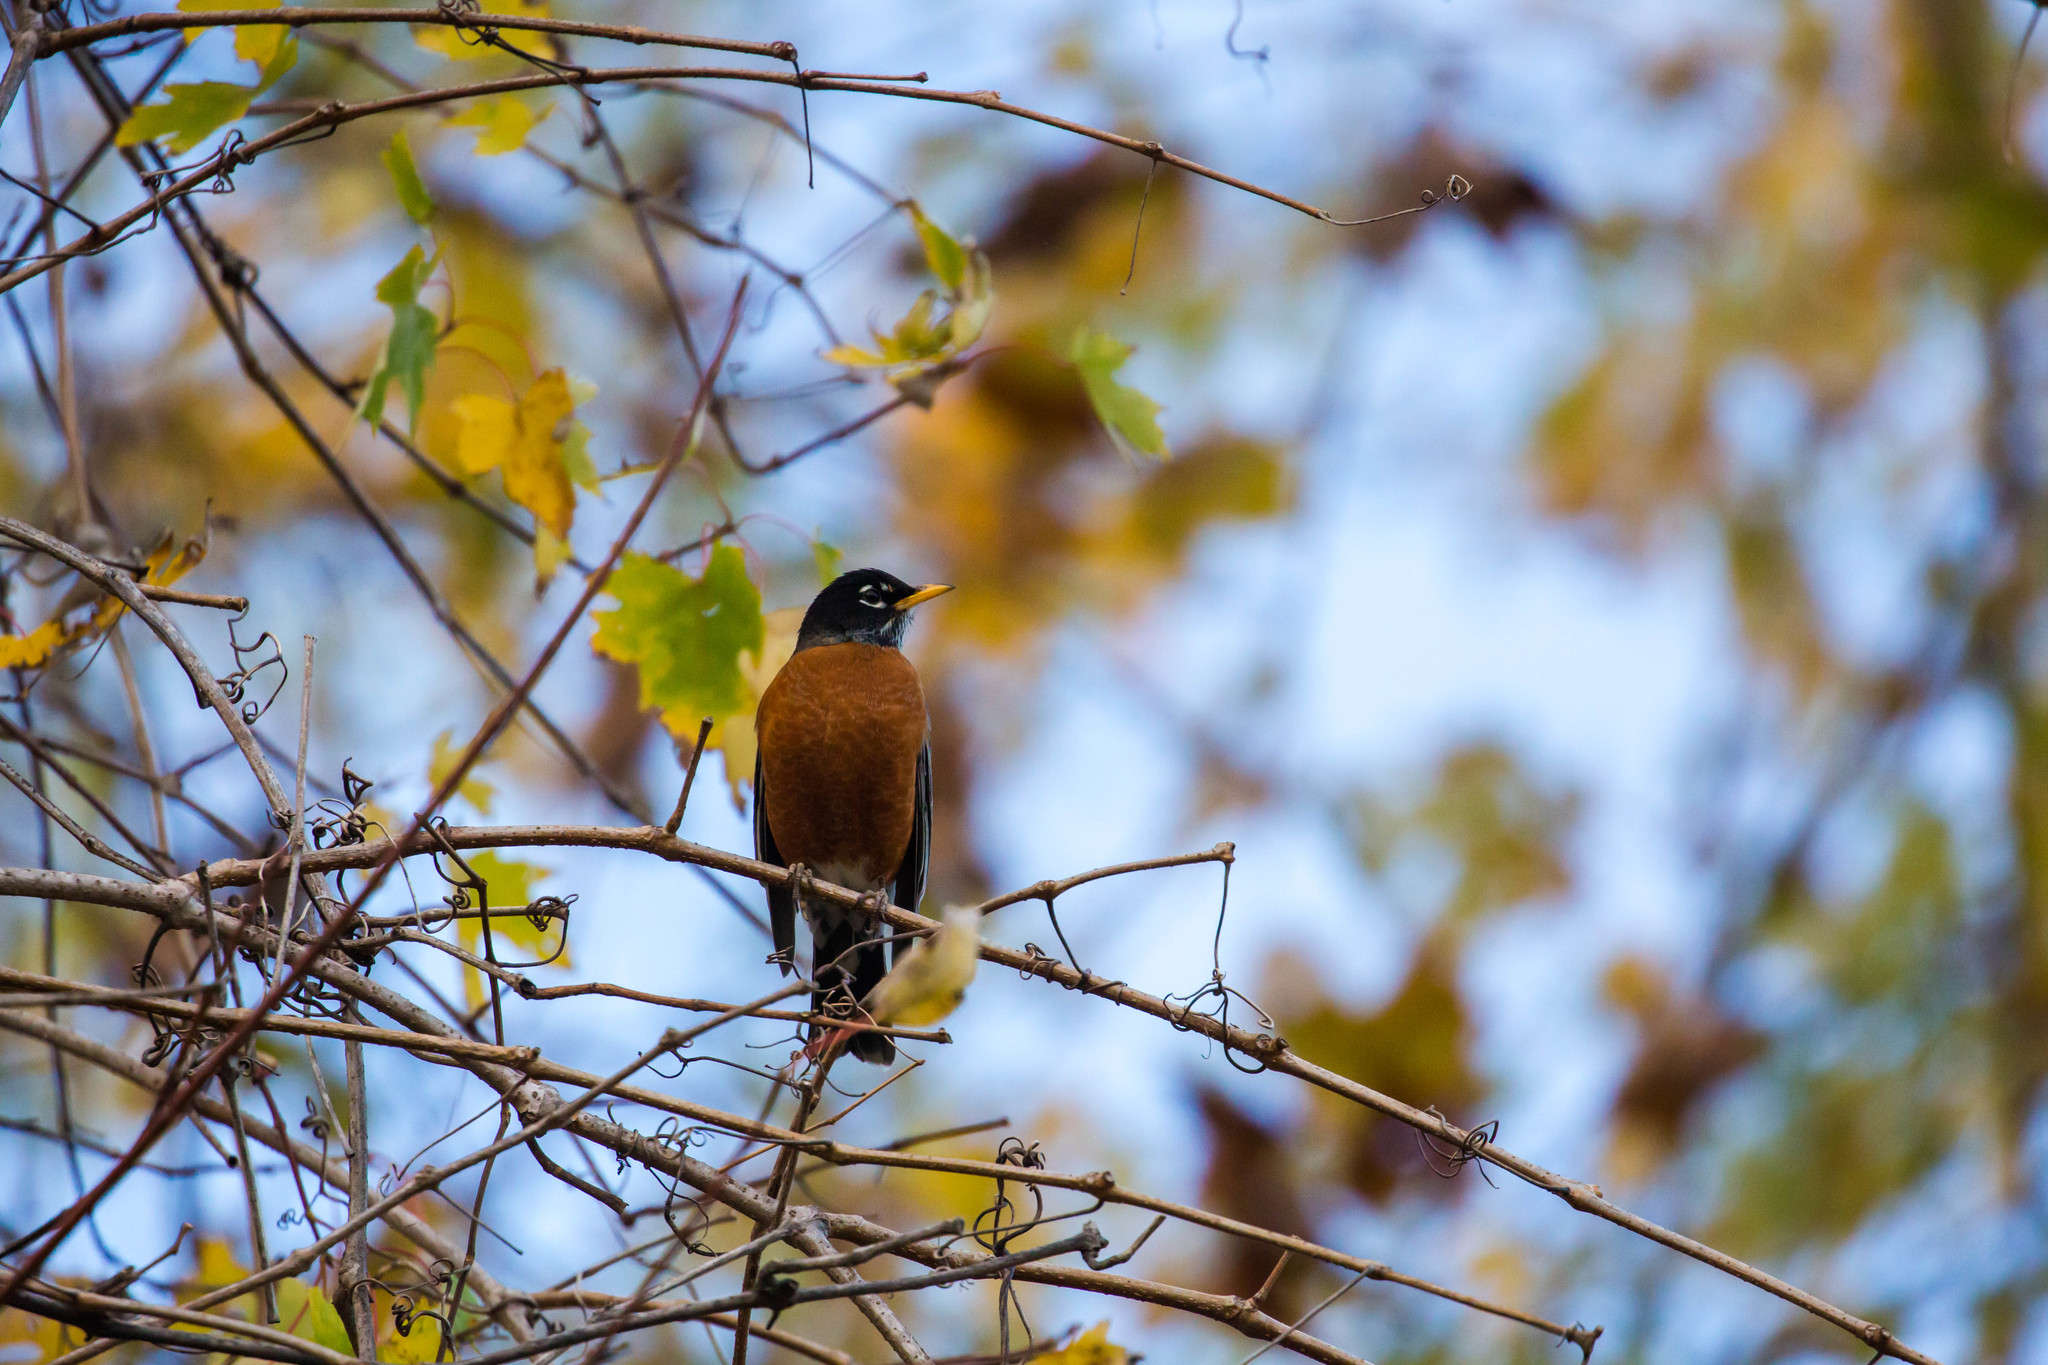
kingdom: Animalia
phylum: Chordata
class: Aves
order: Passeriformes
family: Turdidae
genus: Turdus
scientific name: Turdus migratorius
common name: American robin
